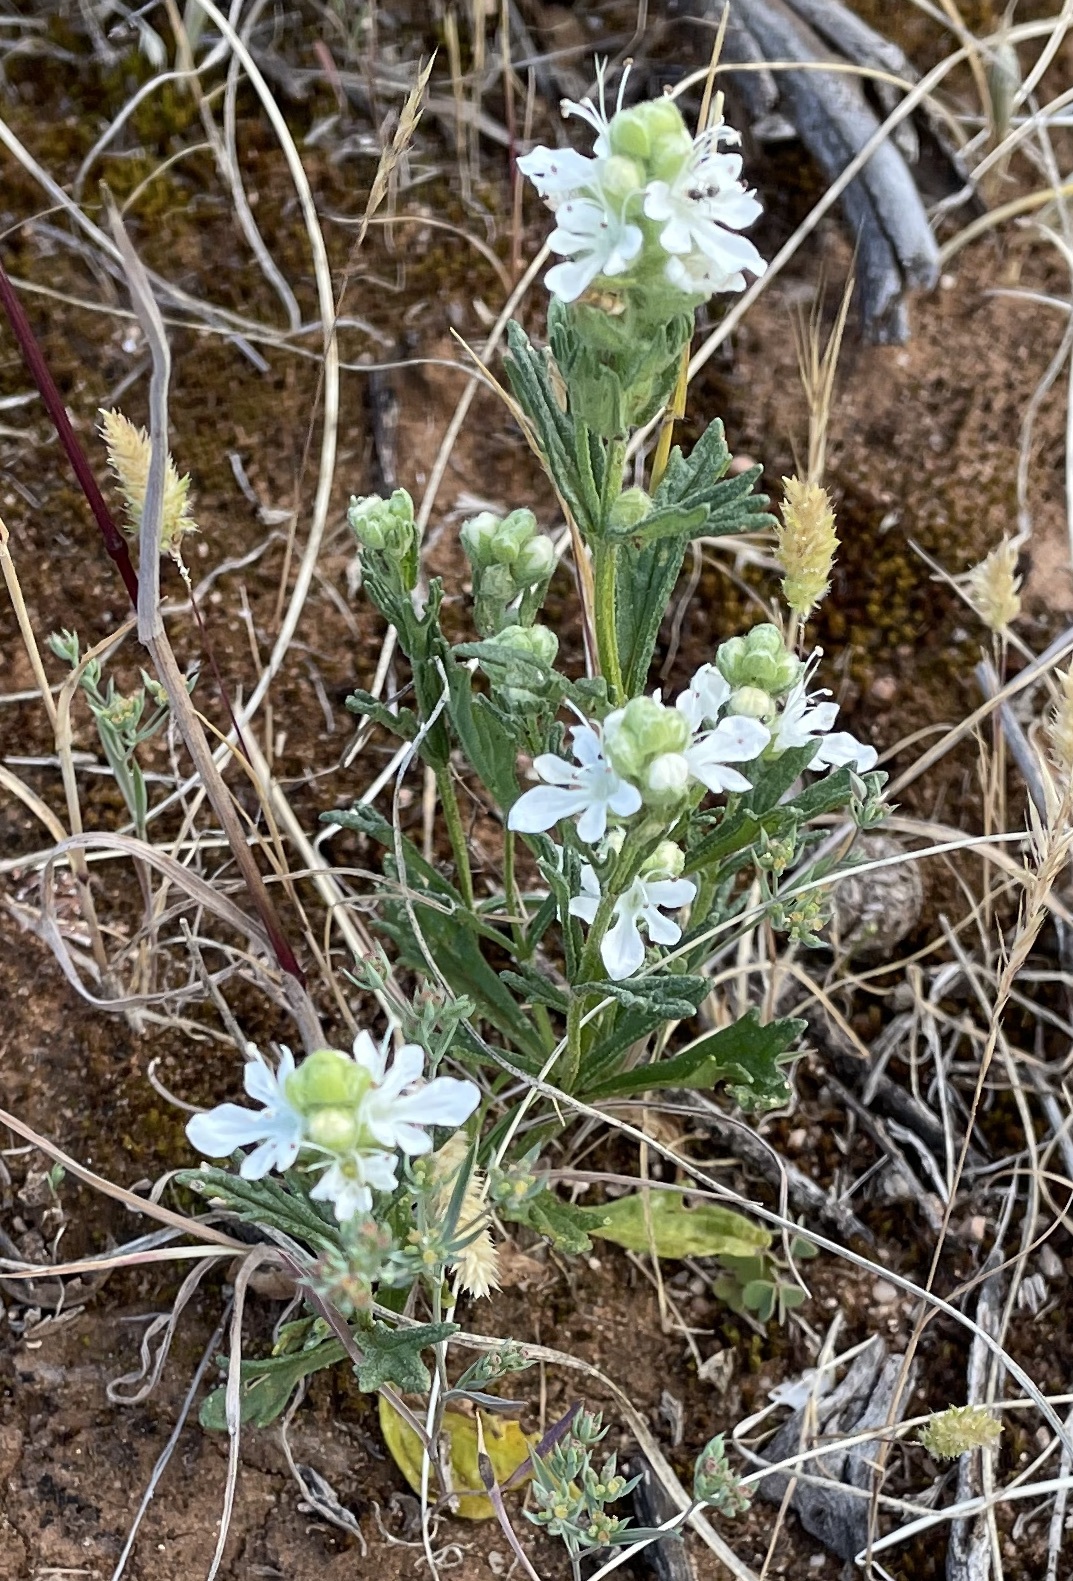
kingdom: Plantae
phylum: Tracheophyta
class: Magnoliopsida
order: Lamiales
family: Lamiaceae
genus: Teucrium
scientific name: Teucrium sessiliflorum
